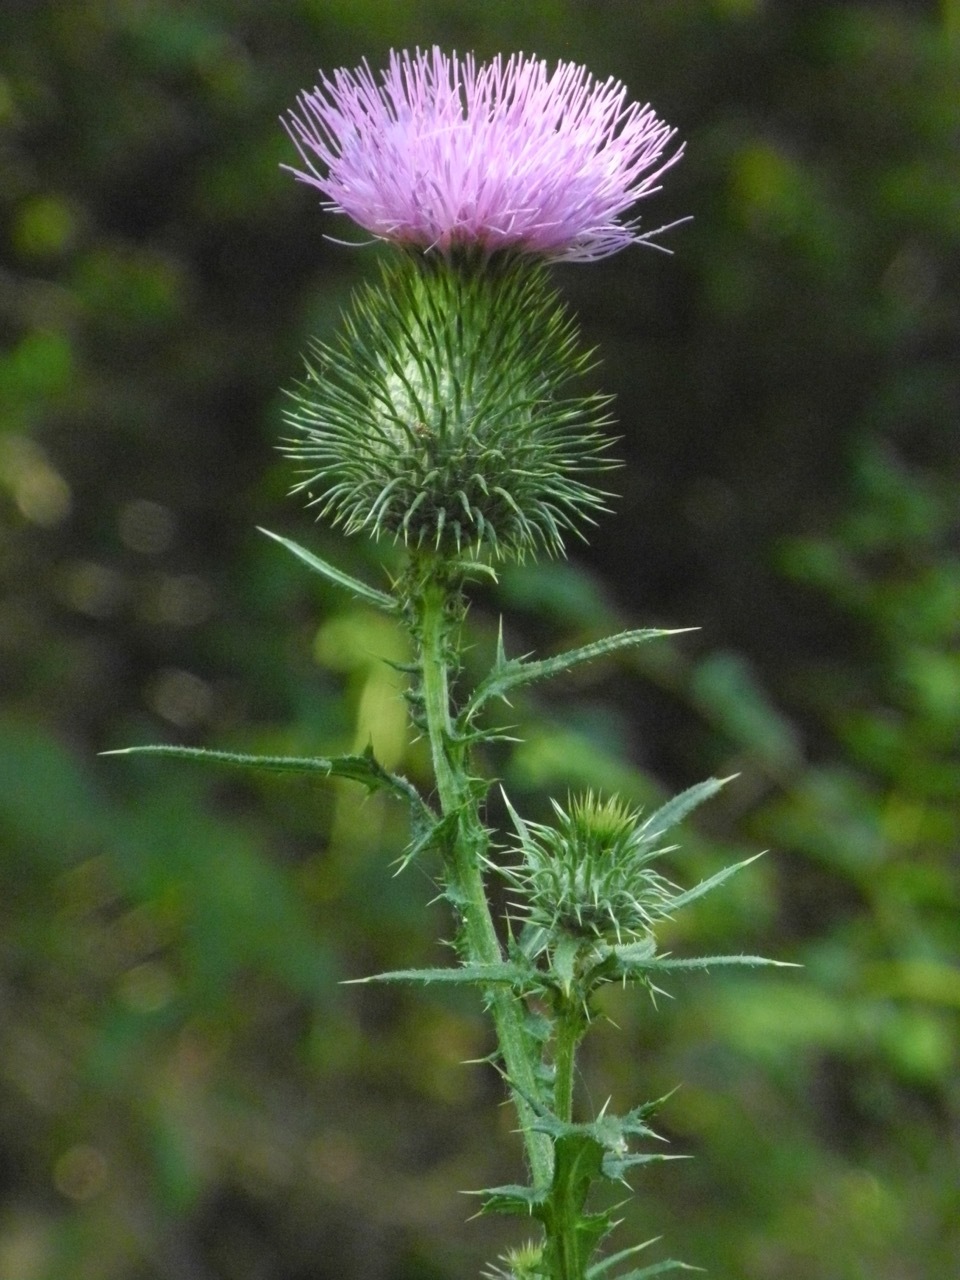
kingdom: Plantae
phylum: Tracheophyta
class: Magnoliopsida
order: Asterales
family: Asteraceae
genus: Cirsium
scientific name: Cirsium vulgare
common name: Bull thistle
